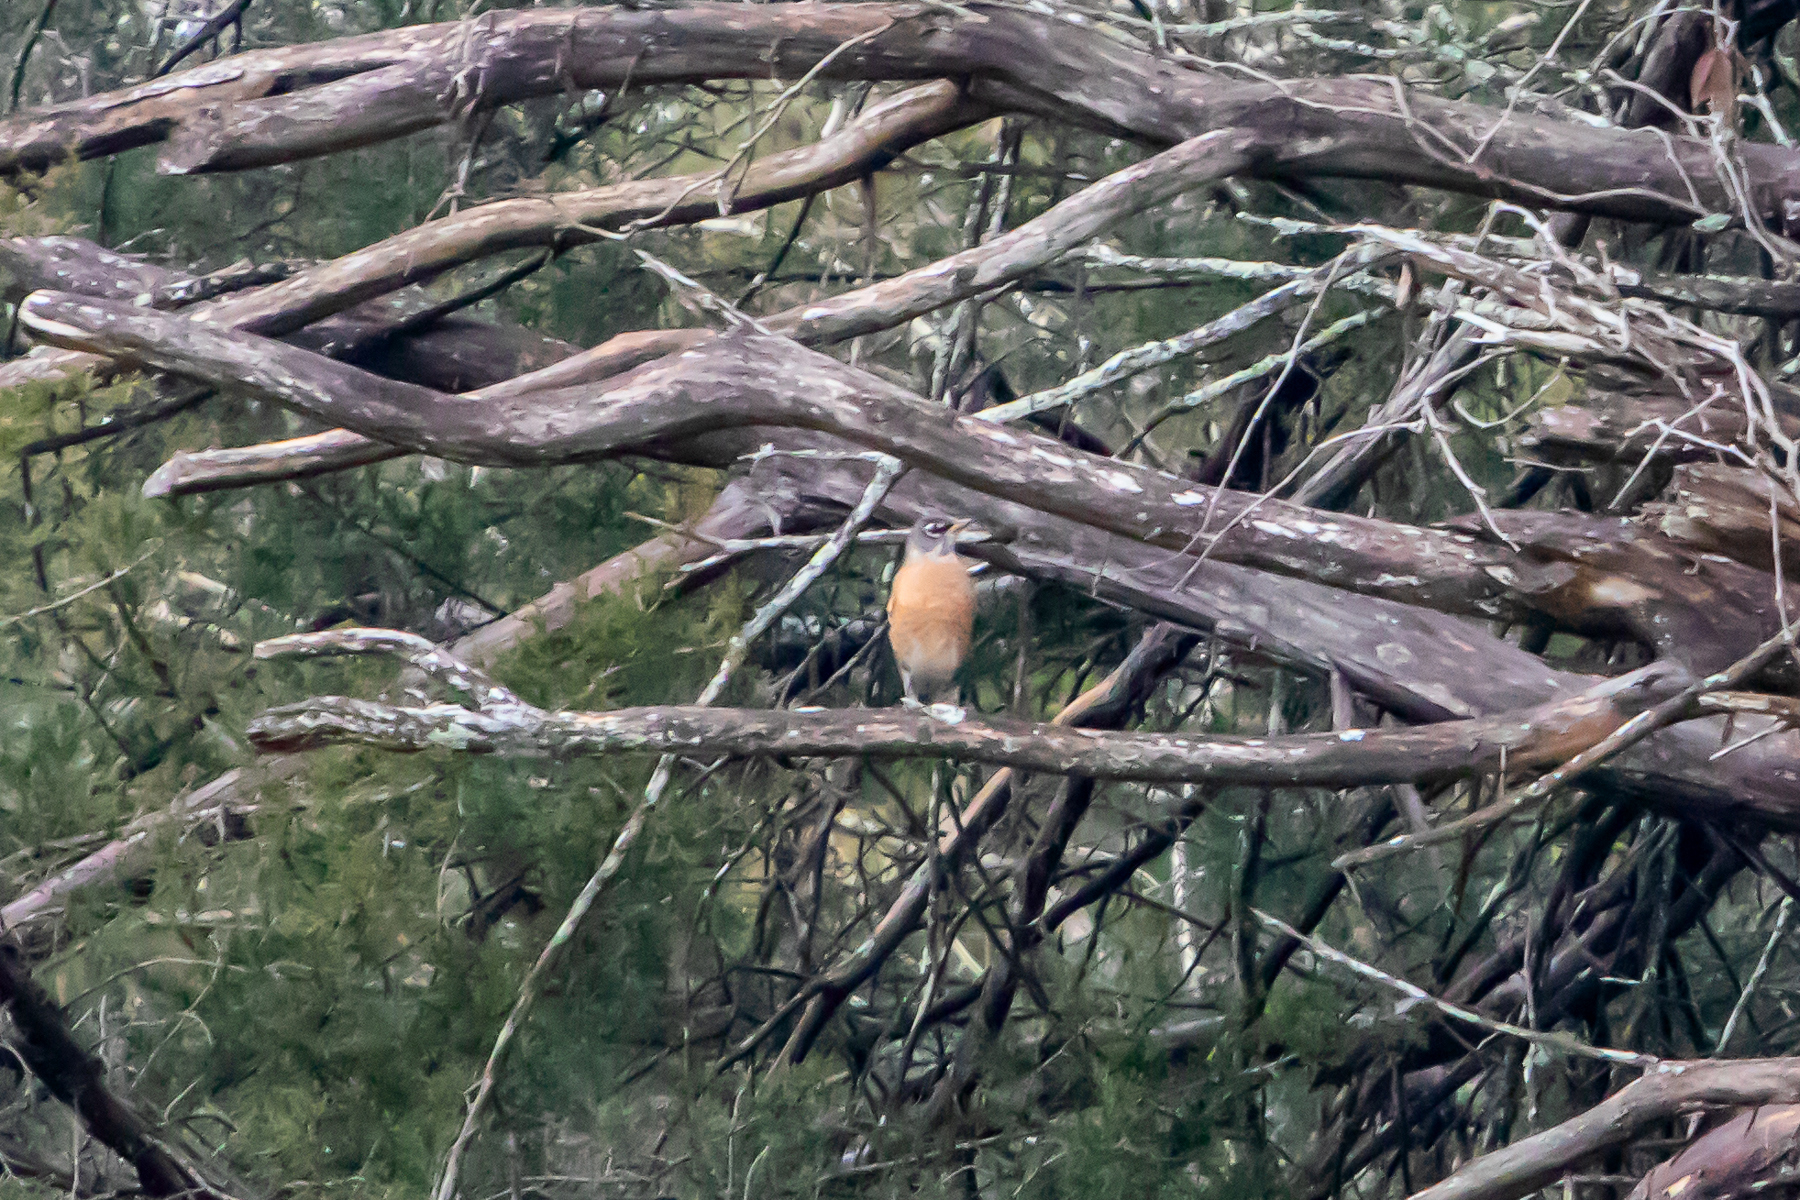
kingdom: Animalia
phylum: Chordata
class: Aves
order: Passeriformes
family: Turdidae
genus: Turdus
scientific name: Turdus migratorius
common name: American robin
